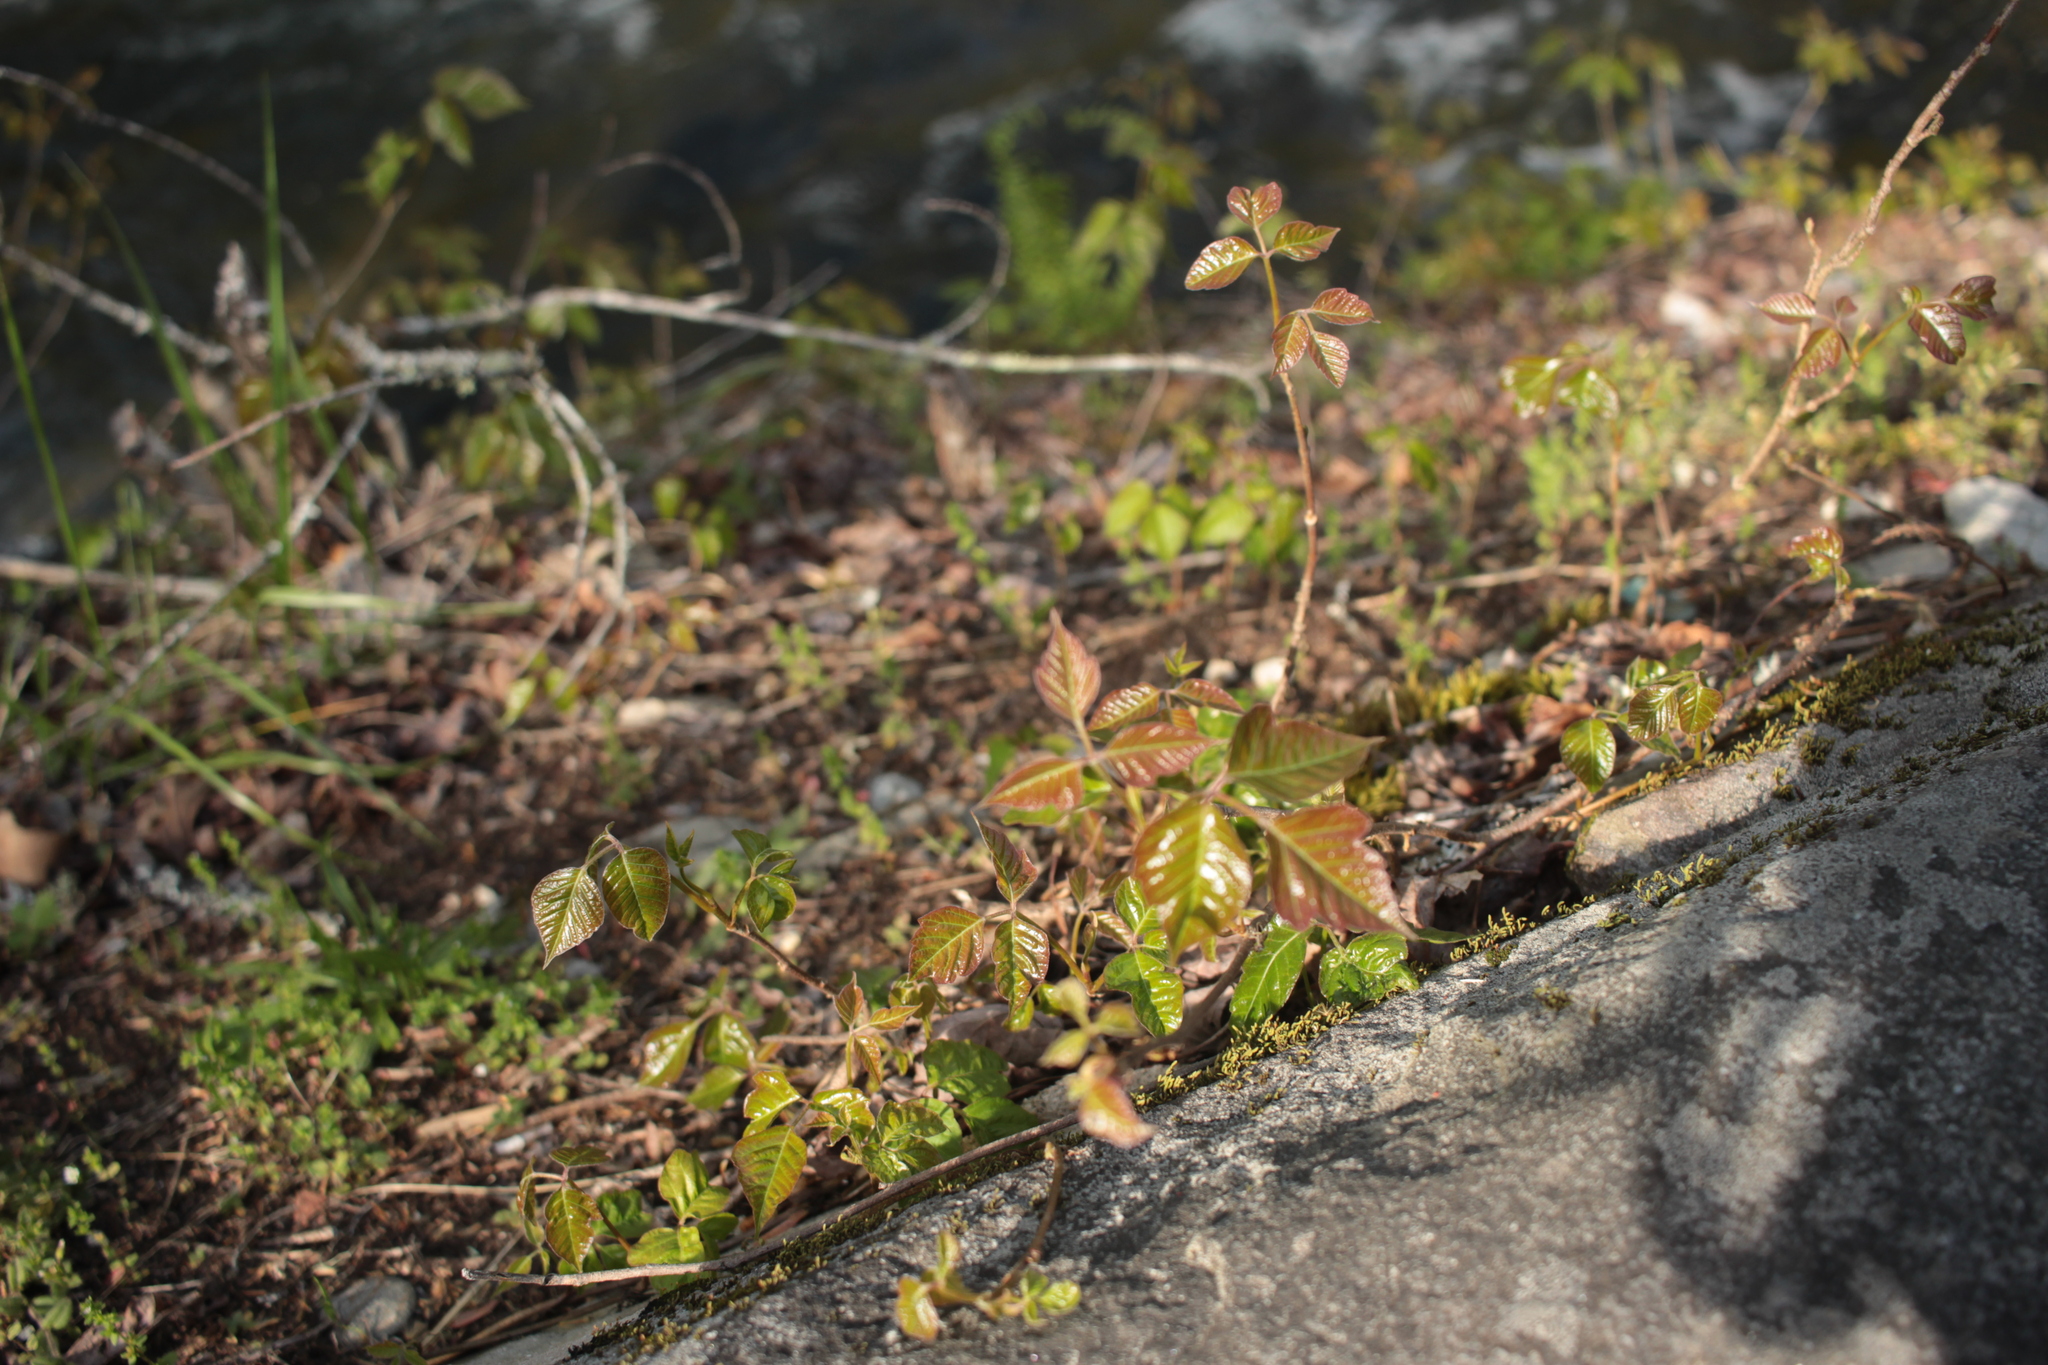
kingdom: Plantae
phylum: Tracheophyta
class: Magnoliopsida
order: Sapindales
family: Anacardiaceae
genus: Toxicodendron
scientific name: Toxicodendron radicans
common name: Poison ivy
